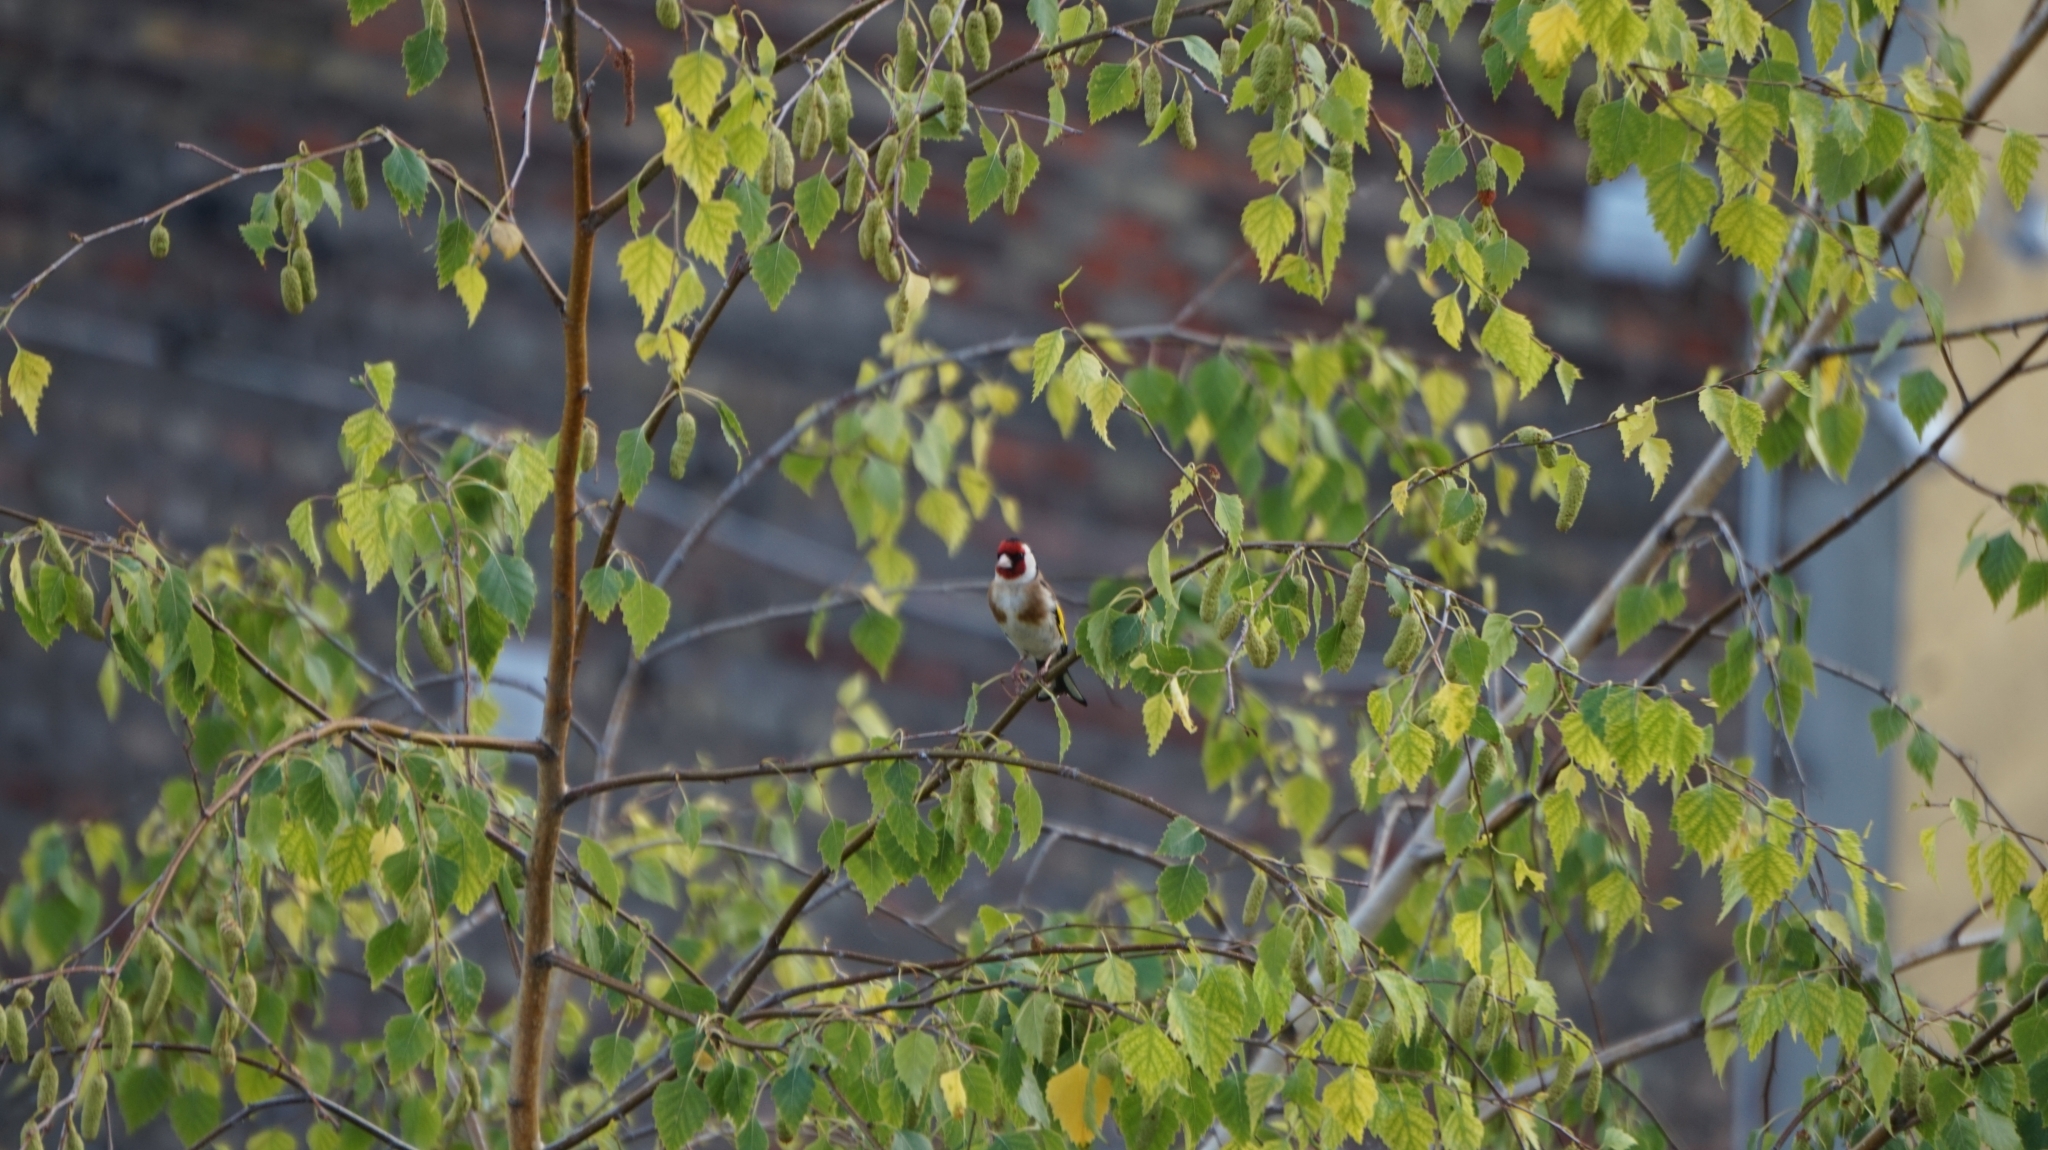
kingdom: Animalia
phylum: Chordata
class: Aves
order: Passeriformes
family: Fringillidae
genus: Carduelis
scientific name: Carduelis carduelis
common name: European goldfinch
